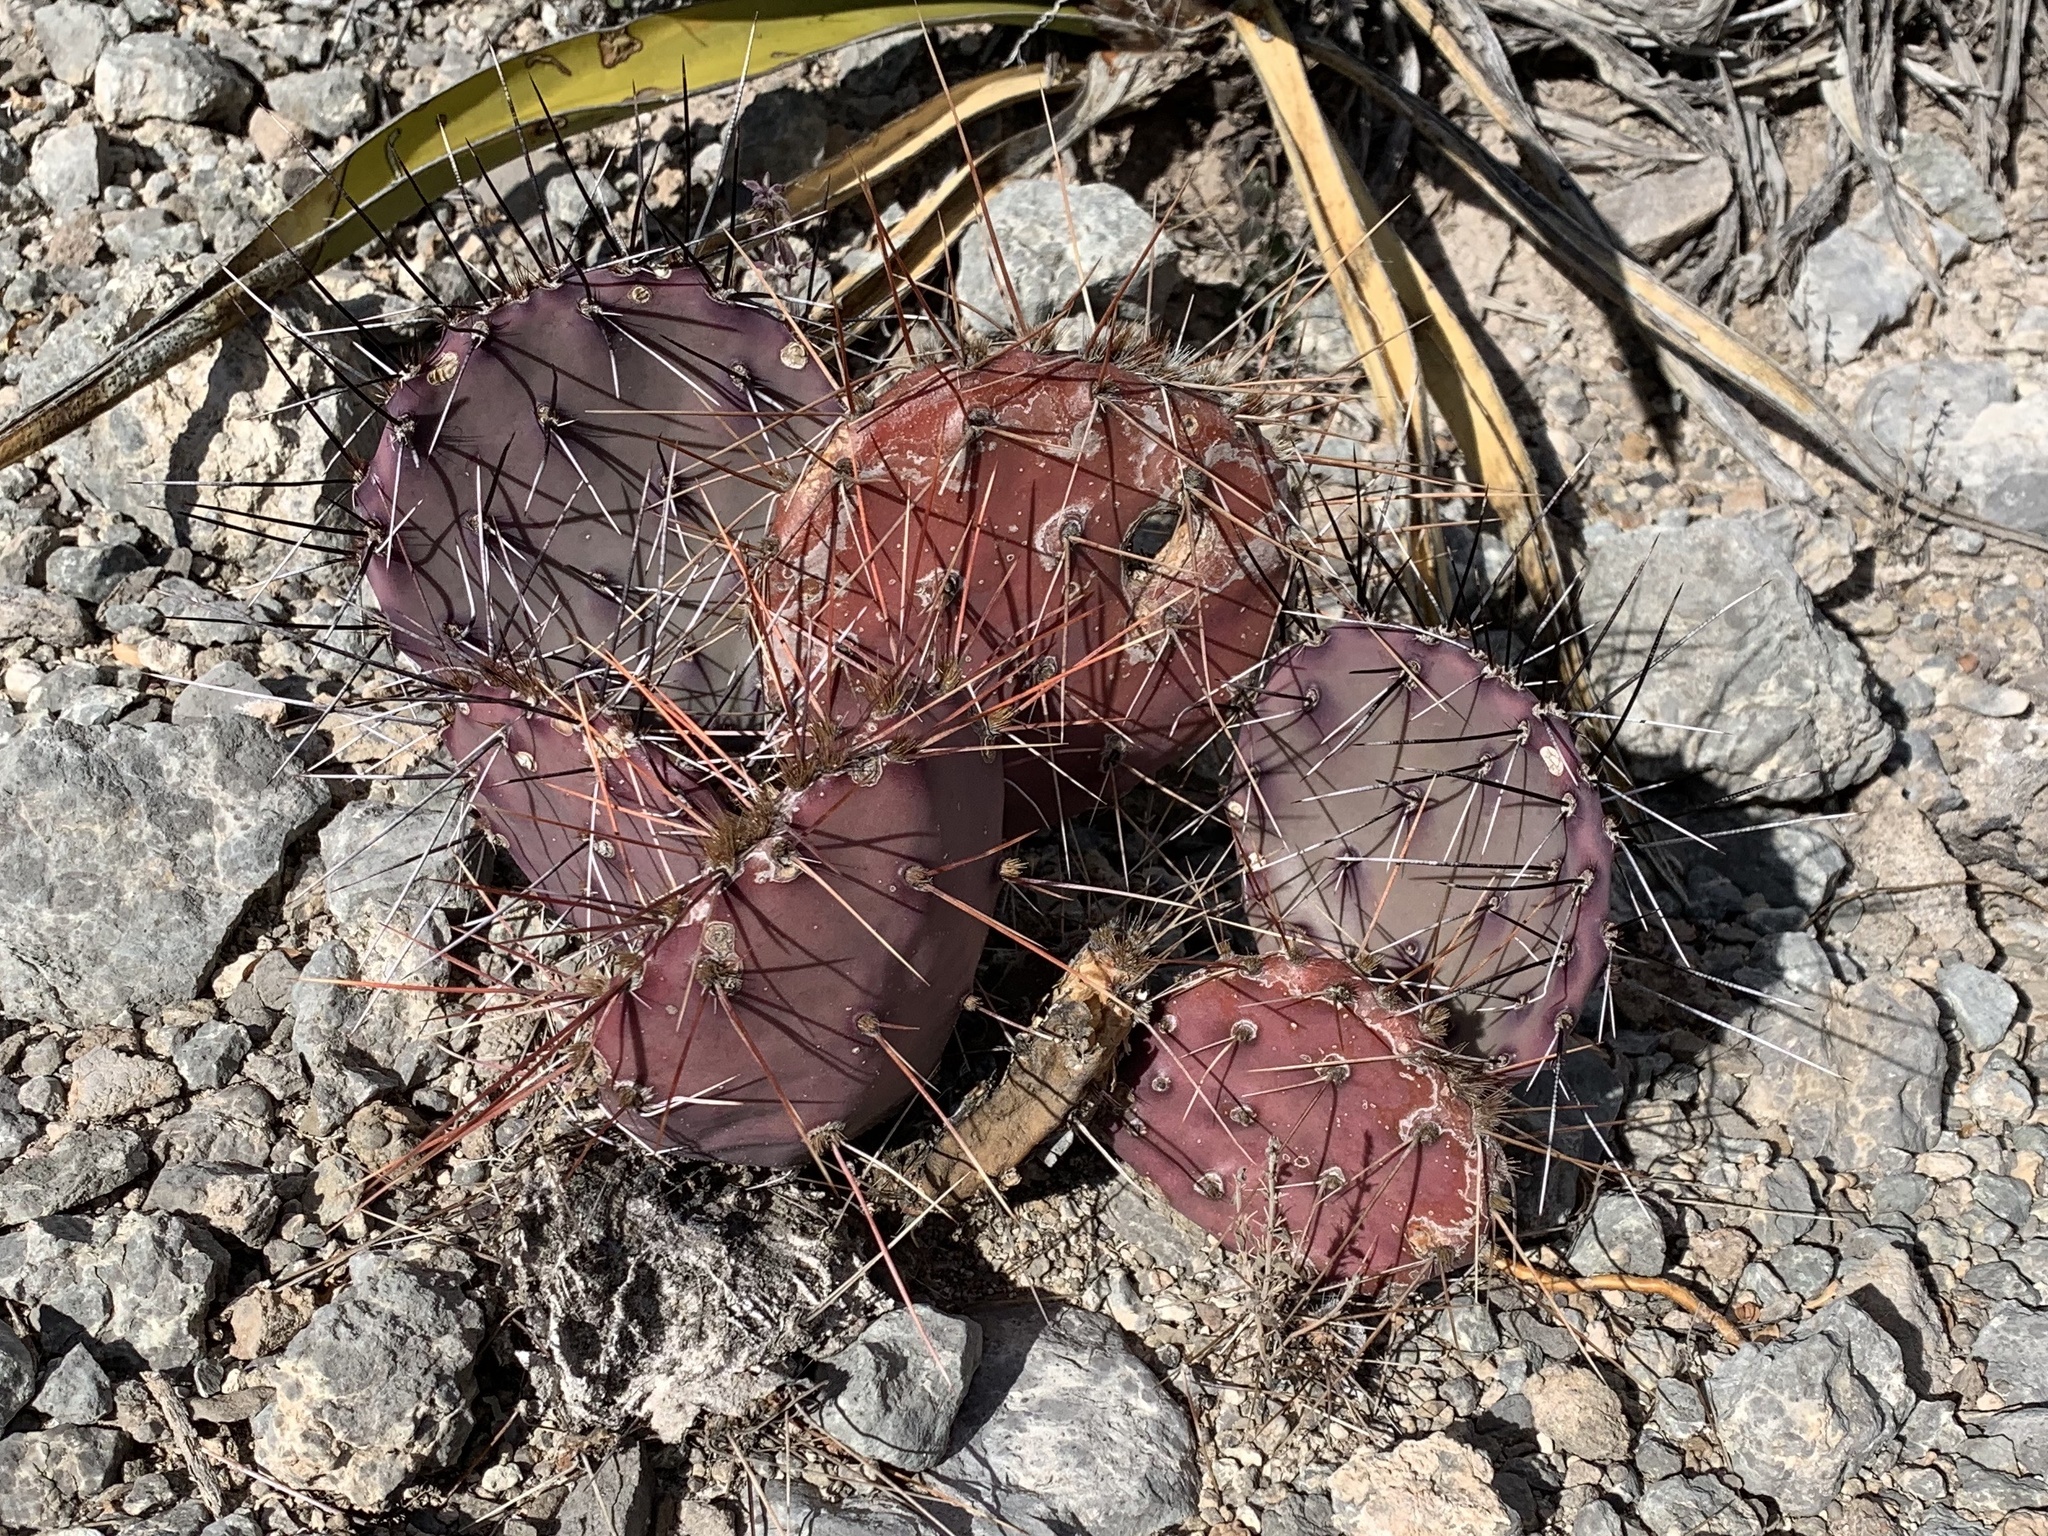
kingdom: Plantae
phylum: Tracheophyta
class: Magnoliopsida
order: Caryophyllales
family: Cactaceae
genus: Opuntia
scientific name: Opuntia macrocentra
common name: Purple prickly-pear
